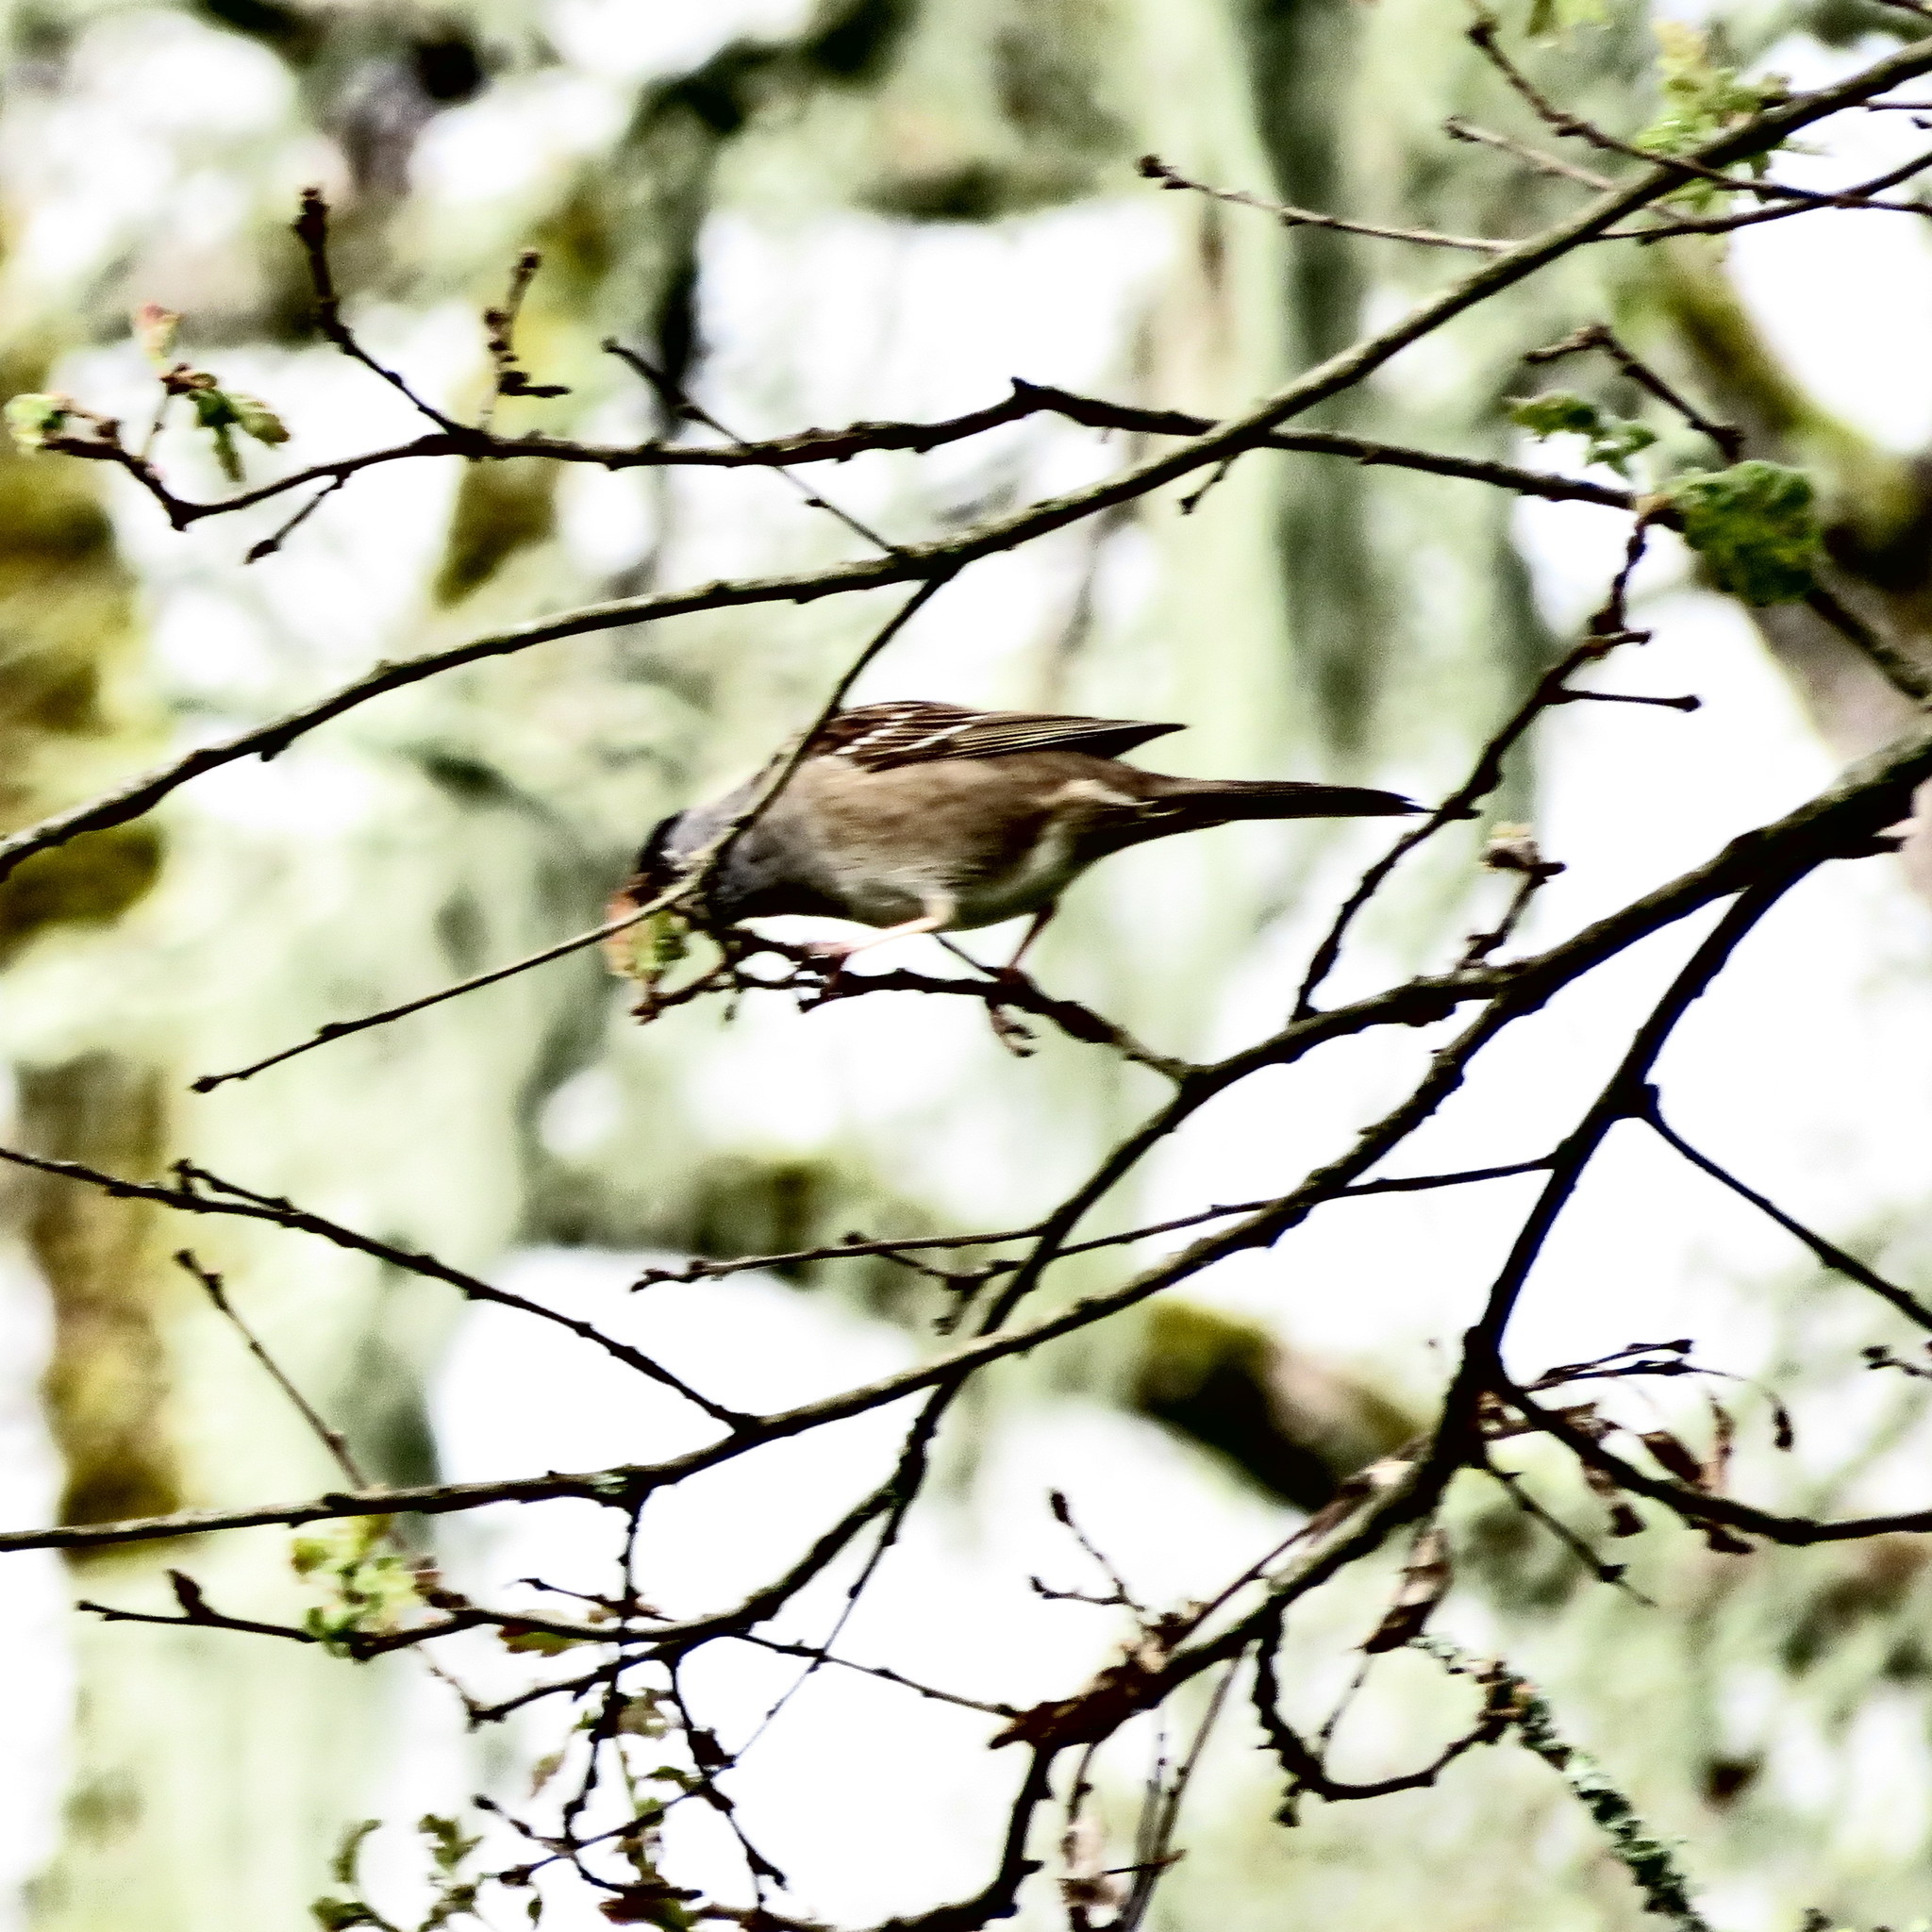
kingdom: Animalia
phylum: Chordata
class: Aves
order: Passeriformes
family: Passerellidae
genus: Zonotrichia
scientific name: Zonotrichia atricapilla
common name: Golden-crowned sparrow
